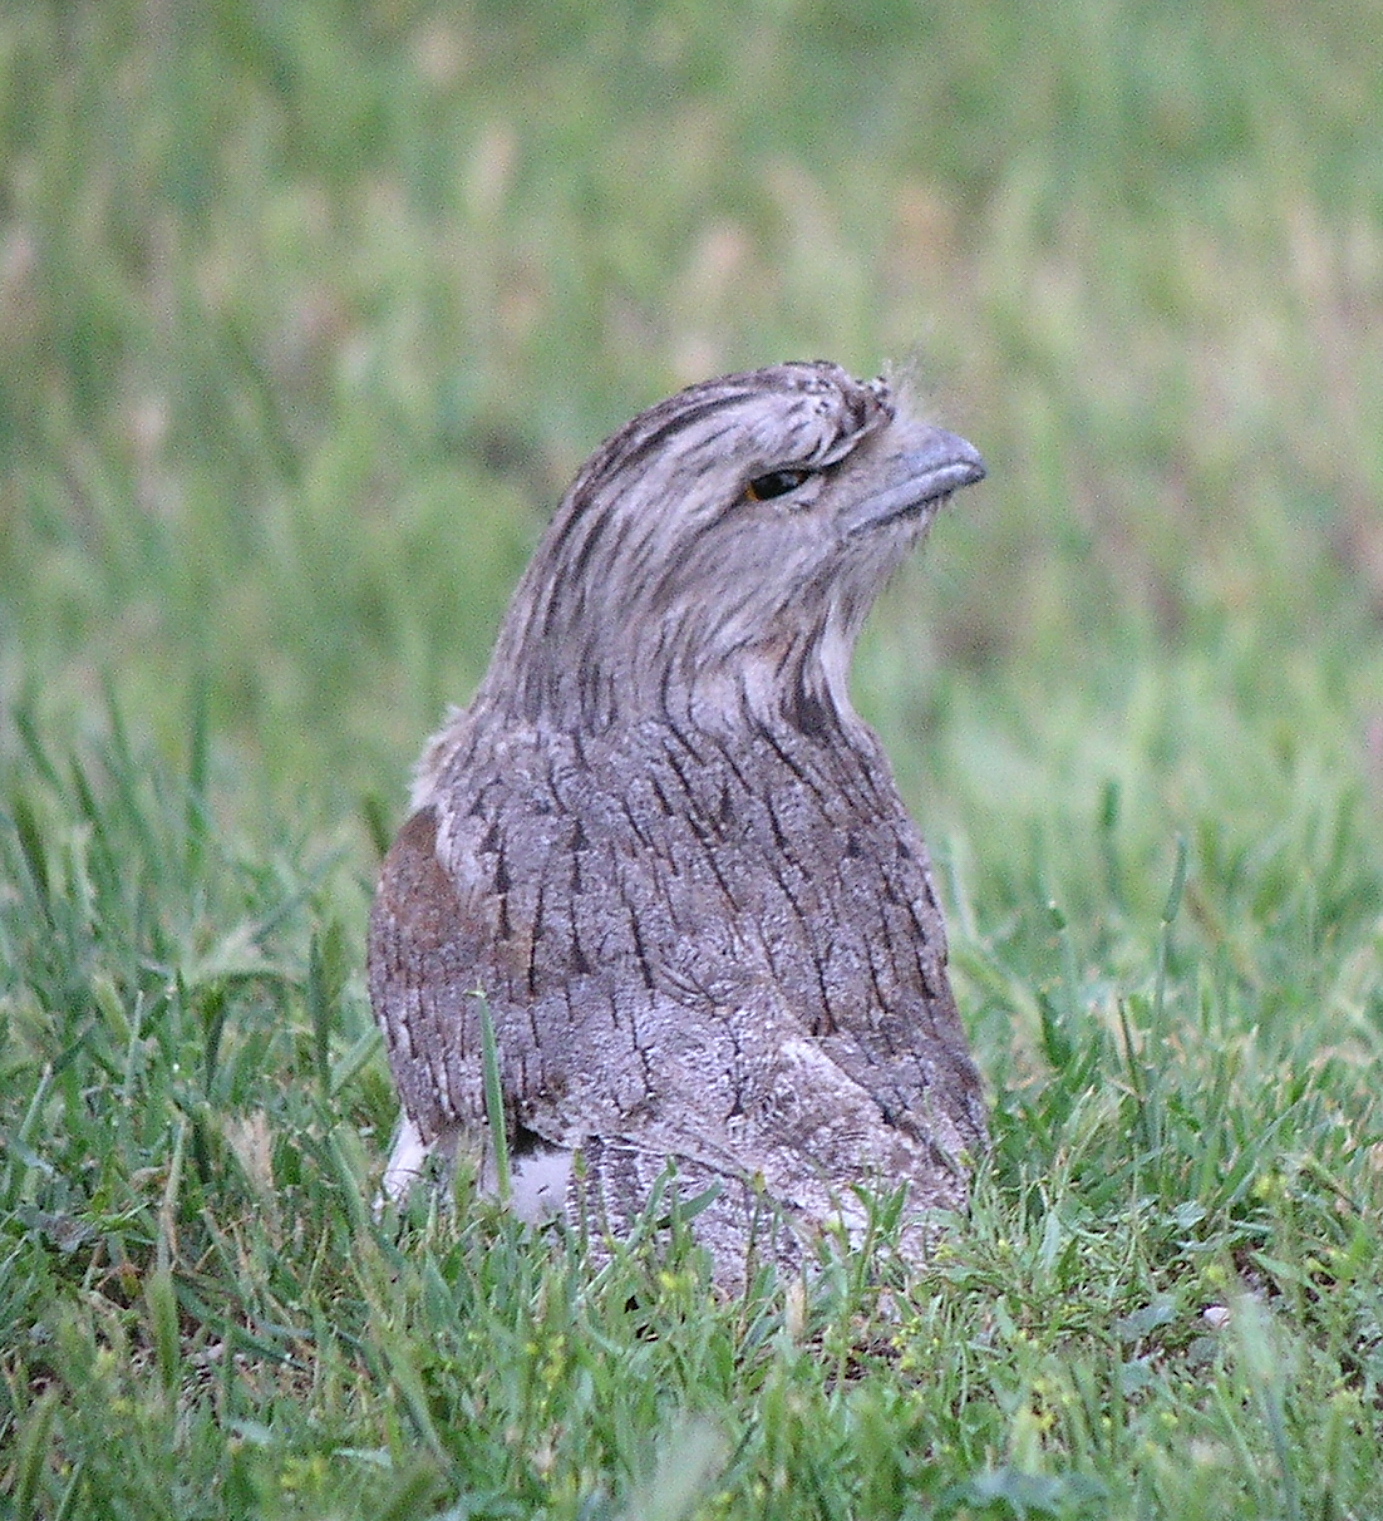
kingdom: Animalia
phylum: Chordata
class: Aves
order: Caprimulgiformes
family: Podargidae
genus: Podargus
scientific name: Podargus strigoides
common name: Tawny frogmouth
